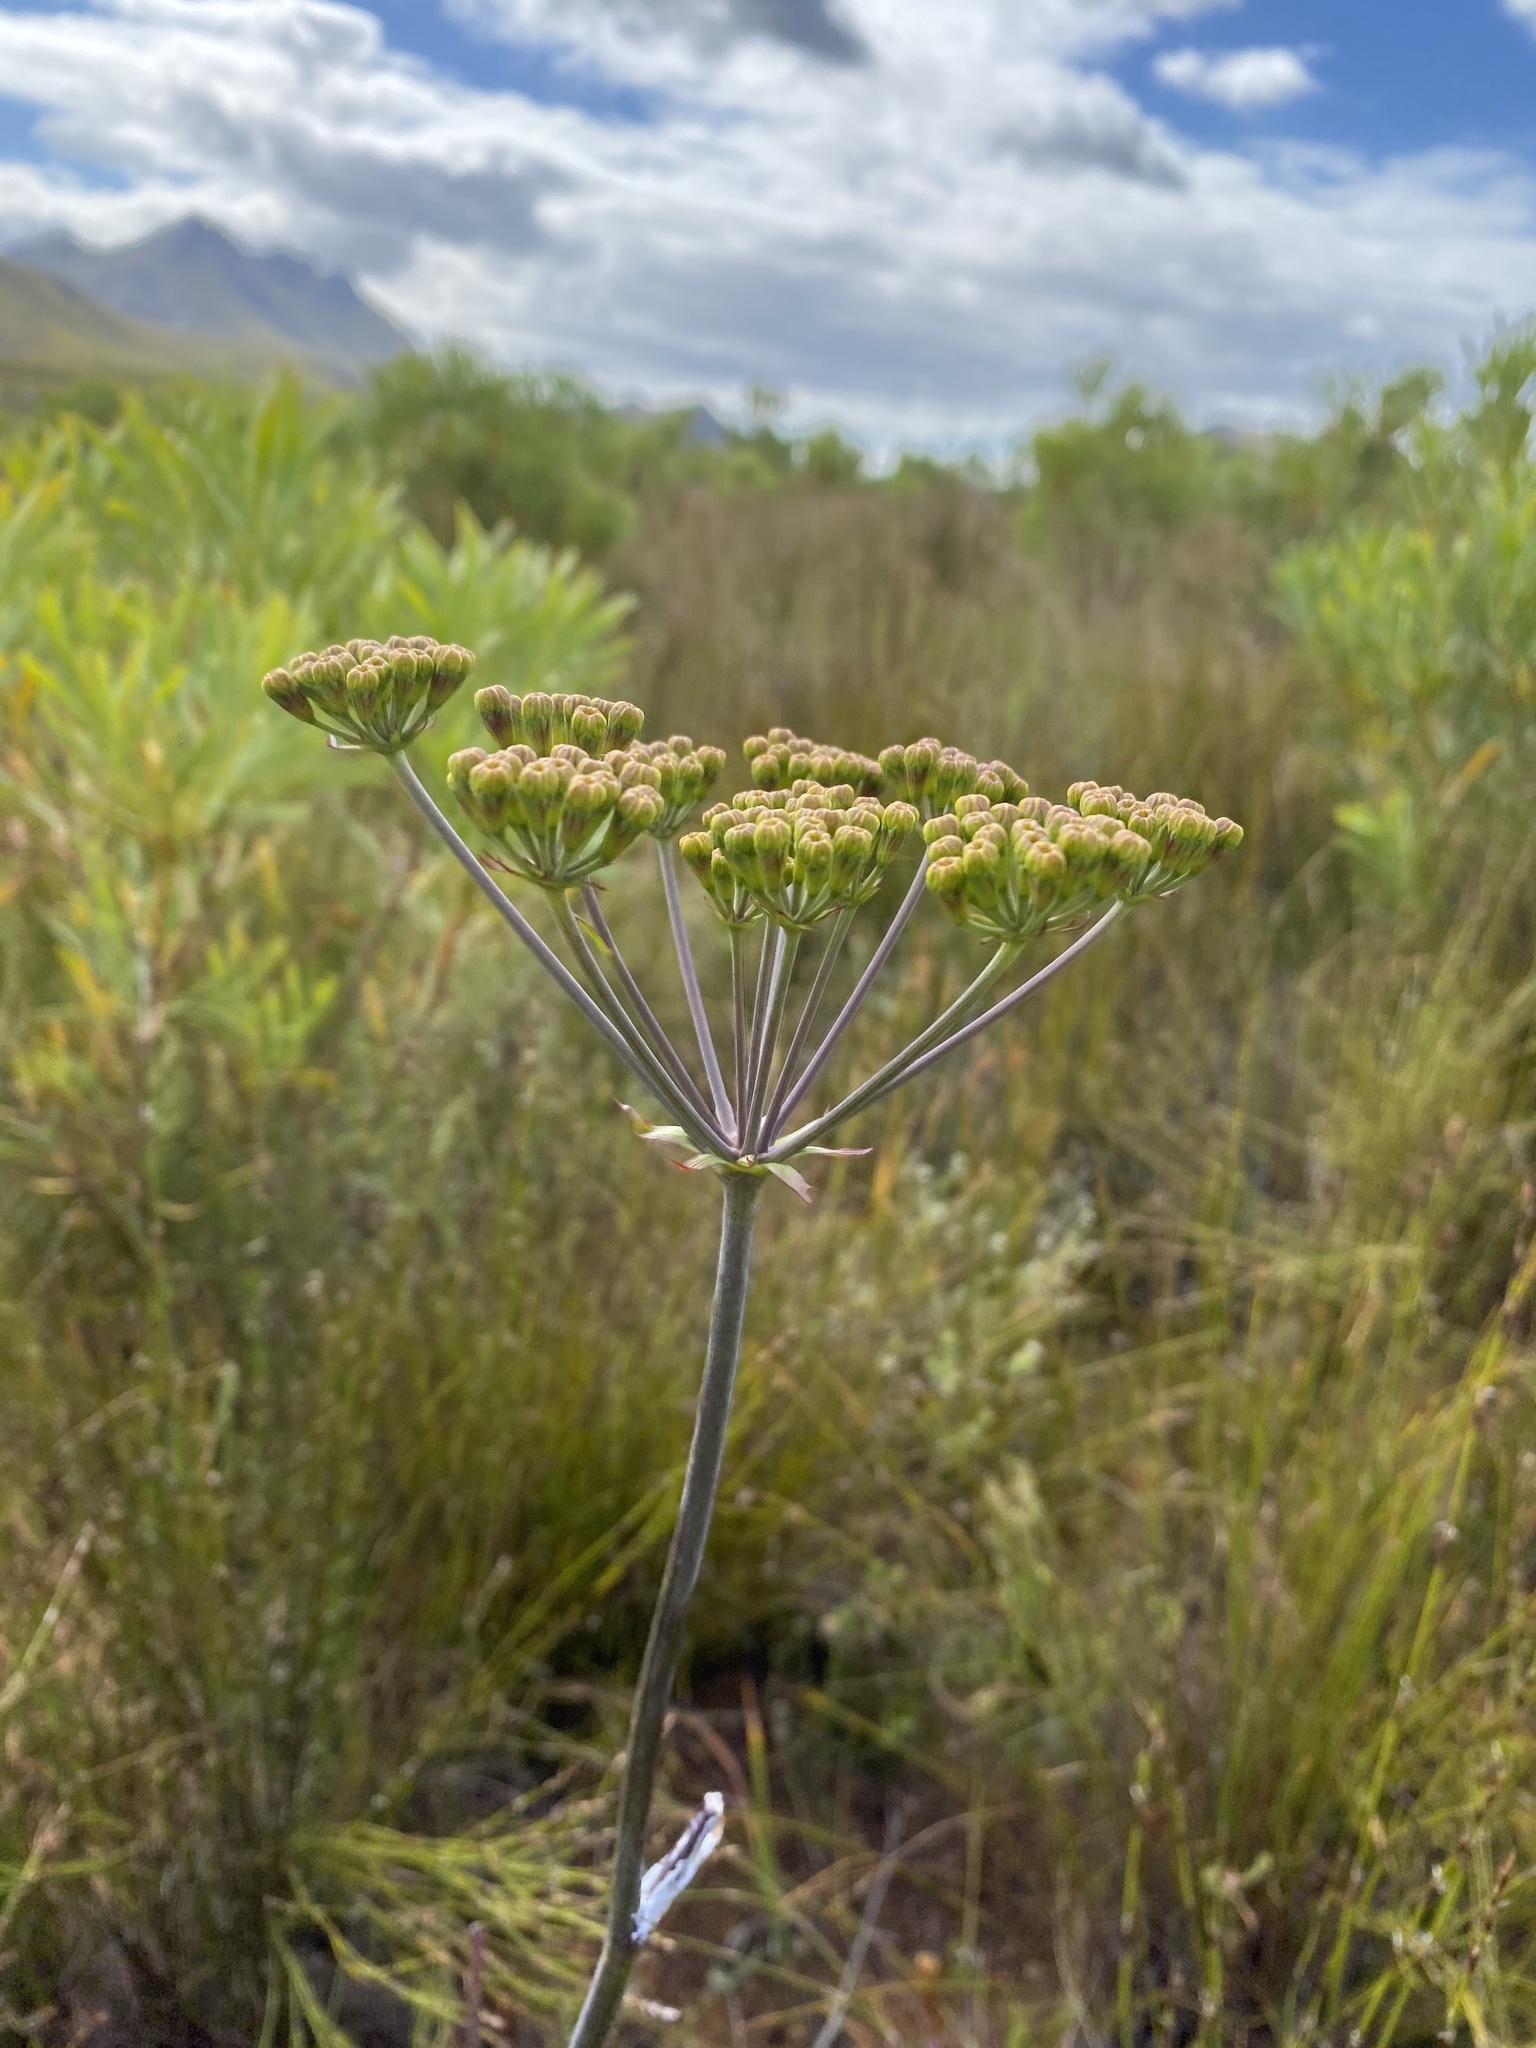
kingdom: Plantae
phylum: Tracheophyta
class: Magnoliopsida
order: Apiales
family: Apiaceae
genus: Lichtensteinia
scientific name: Lichtensteinia lacera
